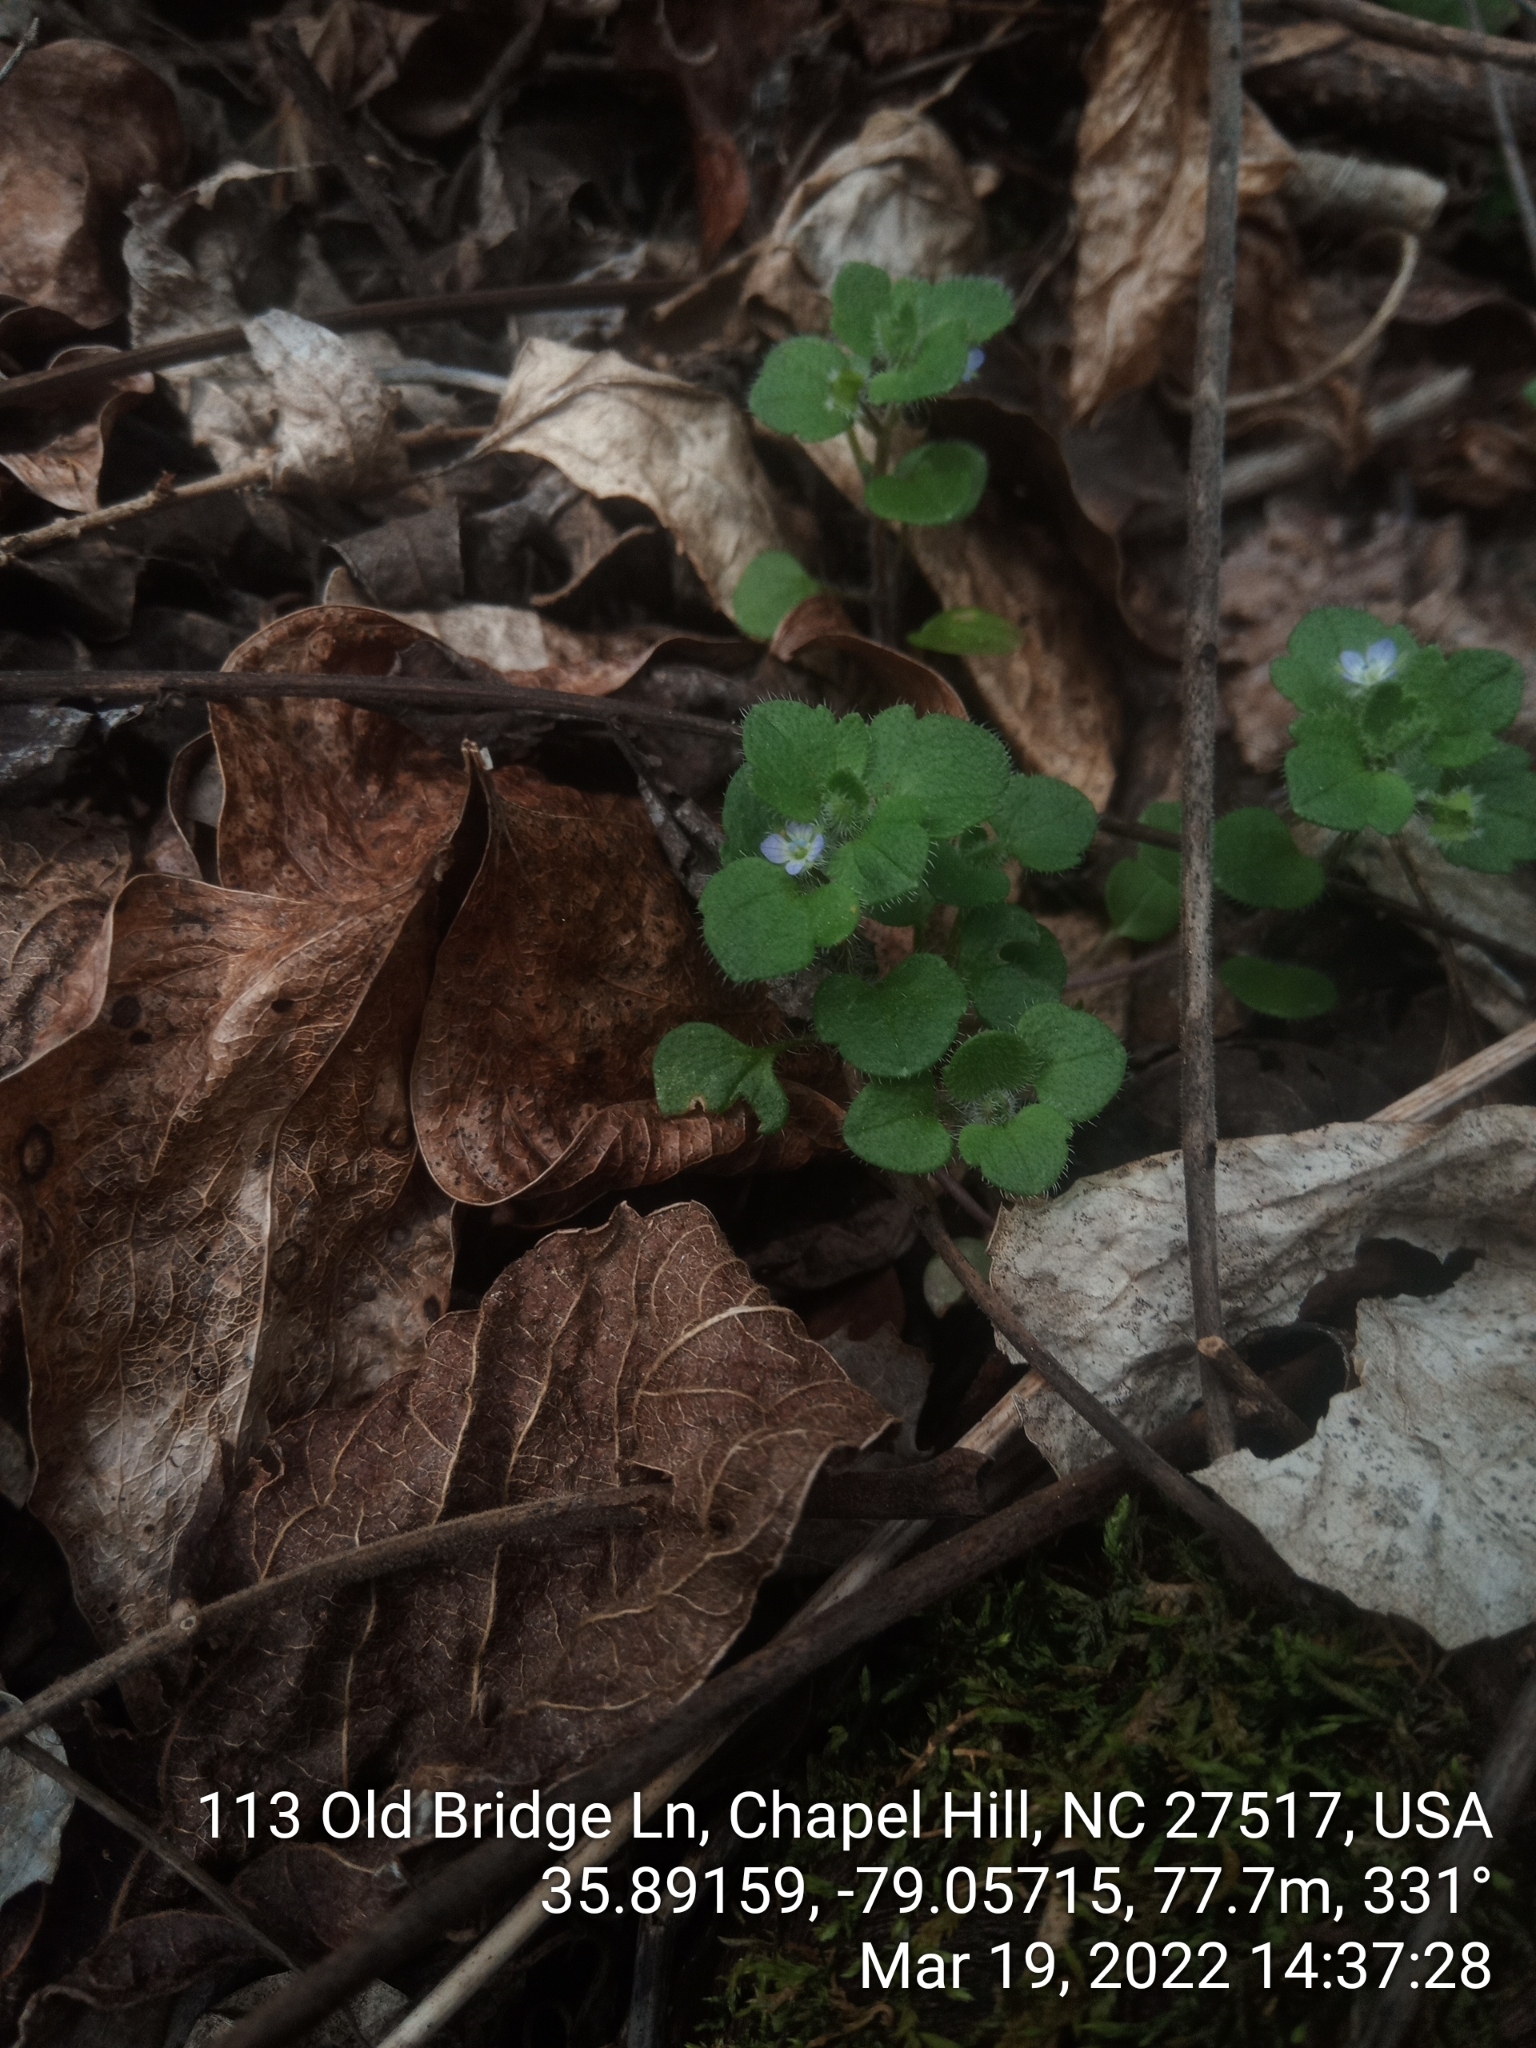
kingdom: Plantae
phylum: Tracheophyta
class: Magnoliopsida
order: Lamiales
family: Plantaginaceae
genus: Veronica
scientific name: Veronica hederifolia
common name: Ivy-leaved speedwell
